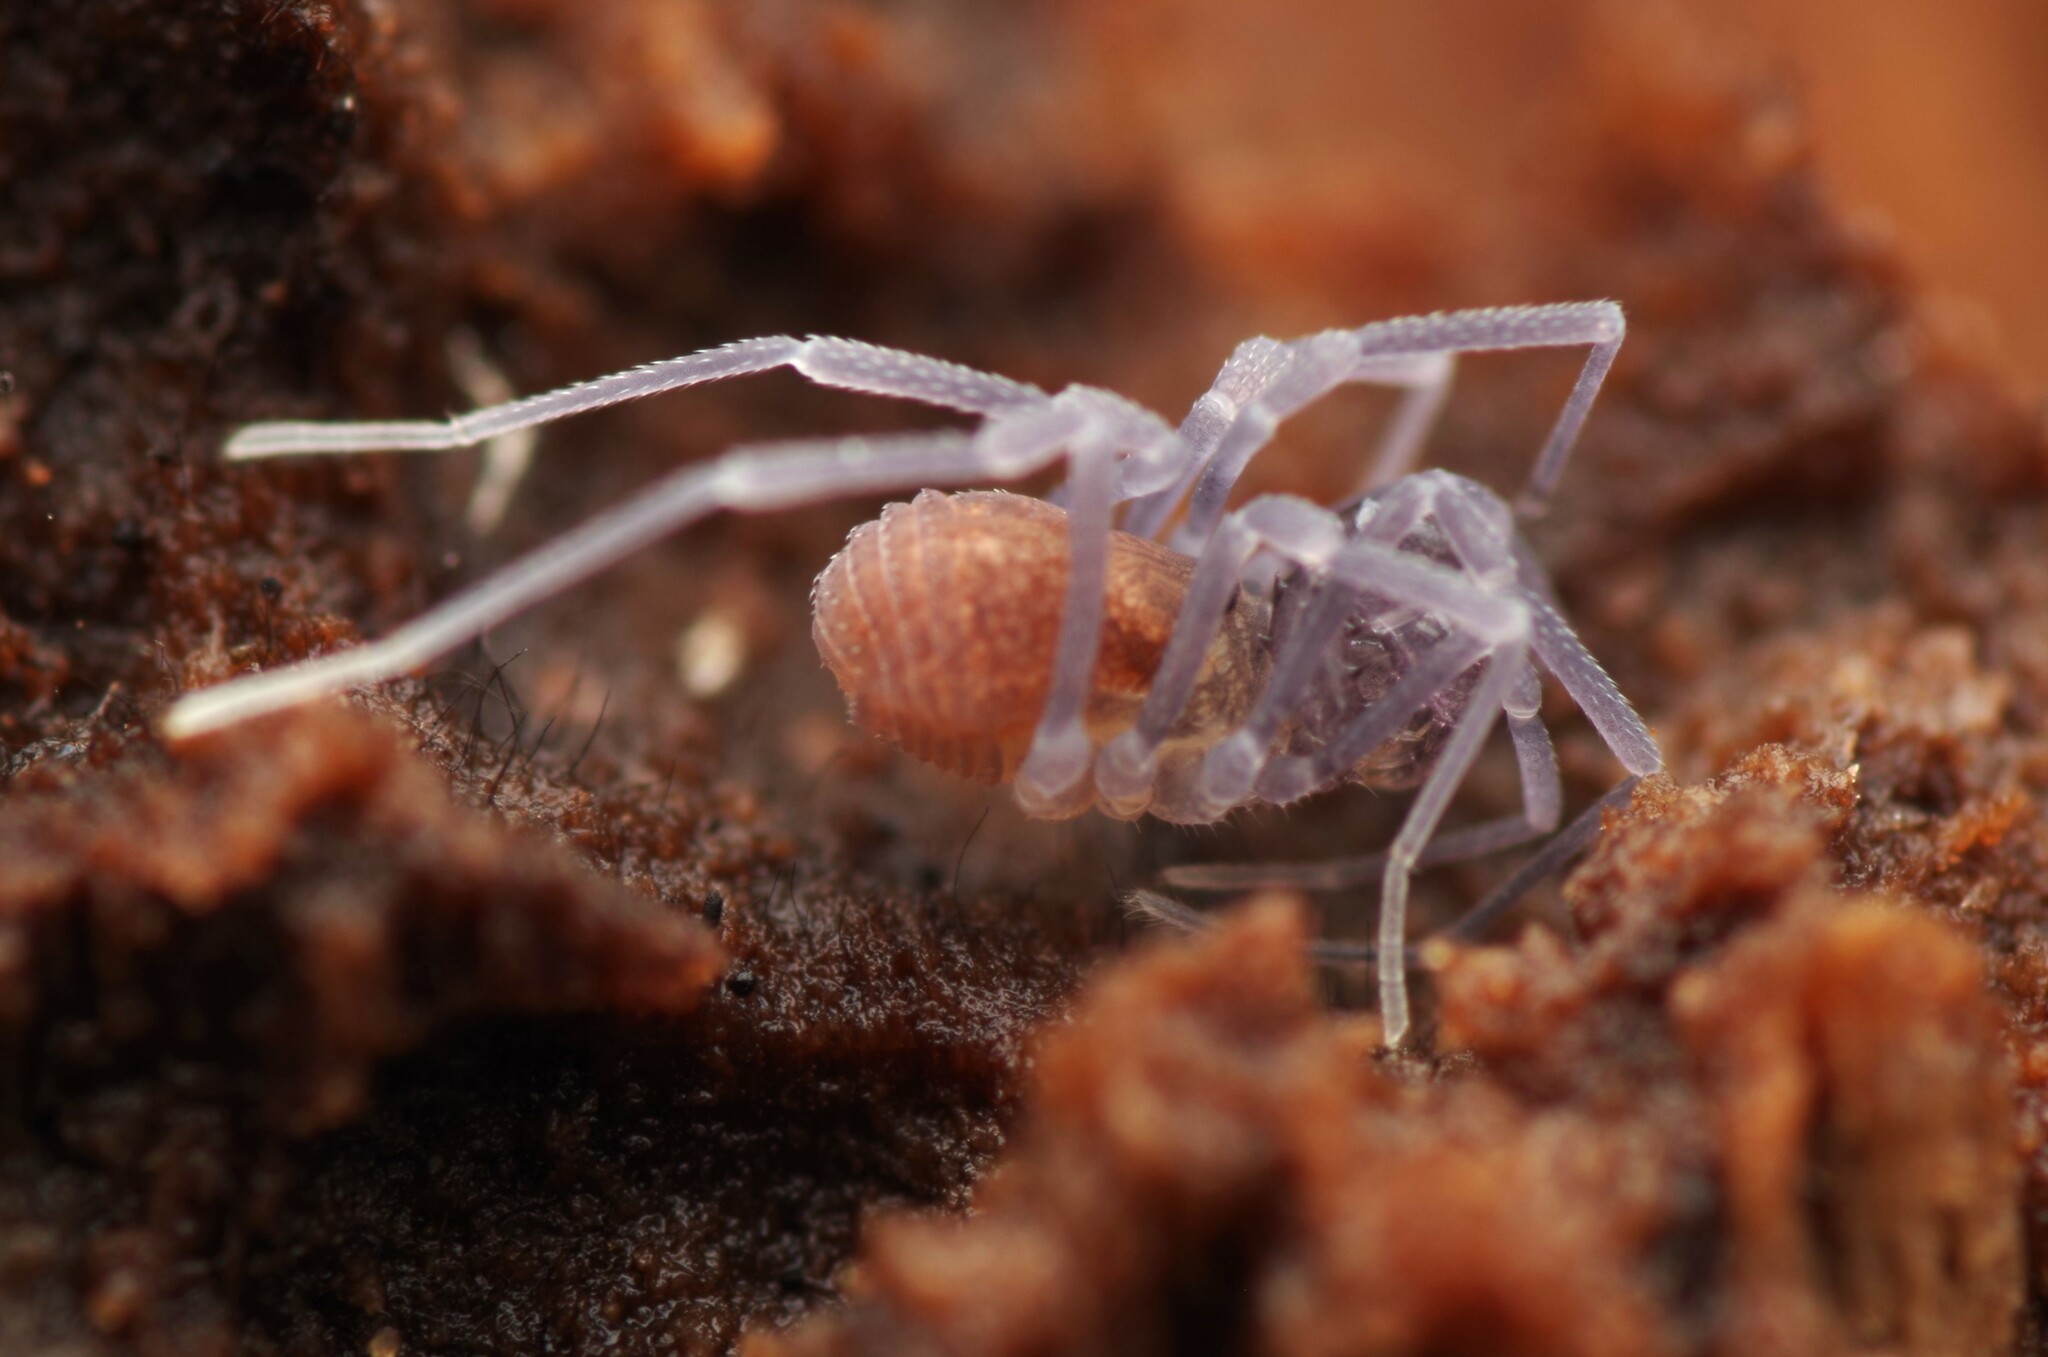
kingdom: Animalia
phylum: Arthropoda
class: Arachnida
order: Opiliones
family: Cladonychiidae
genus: Holoscotolemon
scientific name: Holoscotolemon querilhaci
